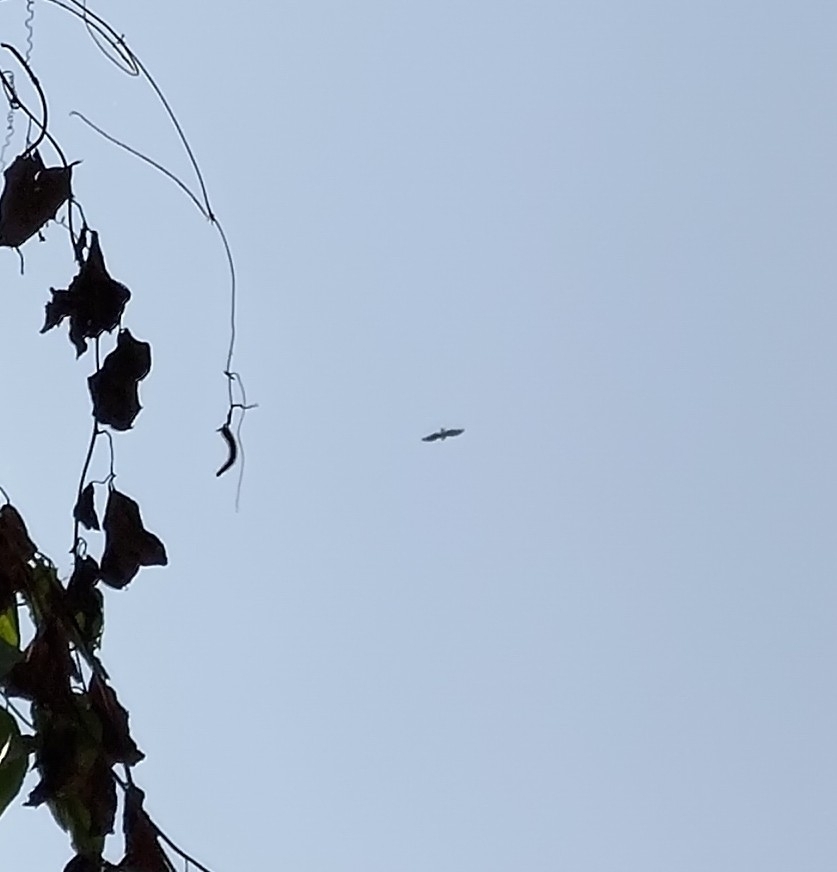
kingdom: Animalia
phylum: Chordata
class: Aves
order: Accipitriformes
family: Accipitridae
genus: Spilornis
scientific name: Spilornis cheela
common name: Crested serpent eagle
